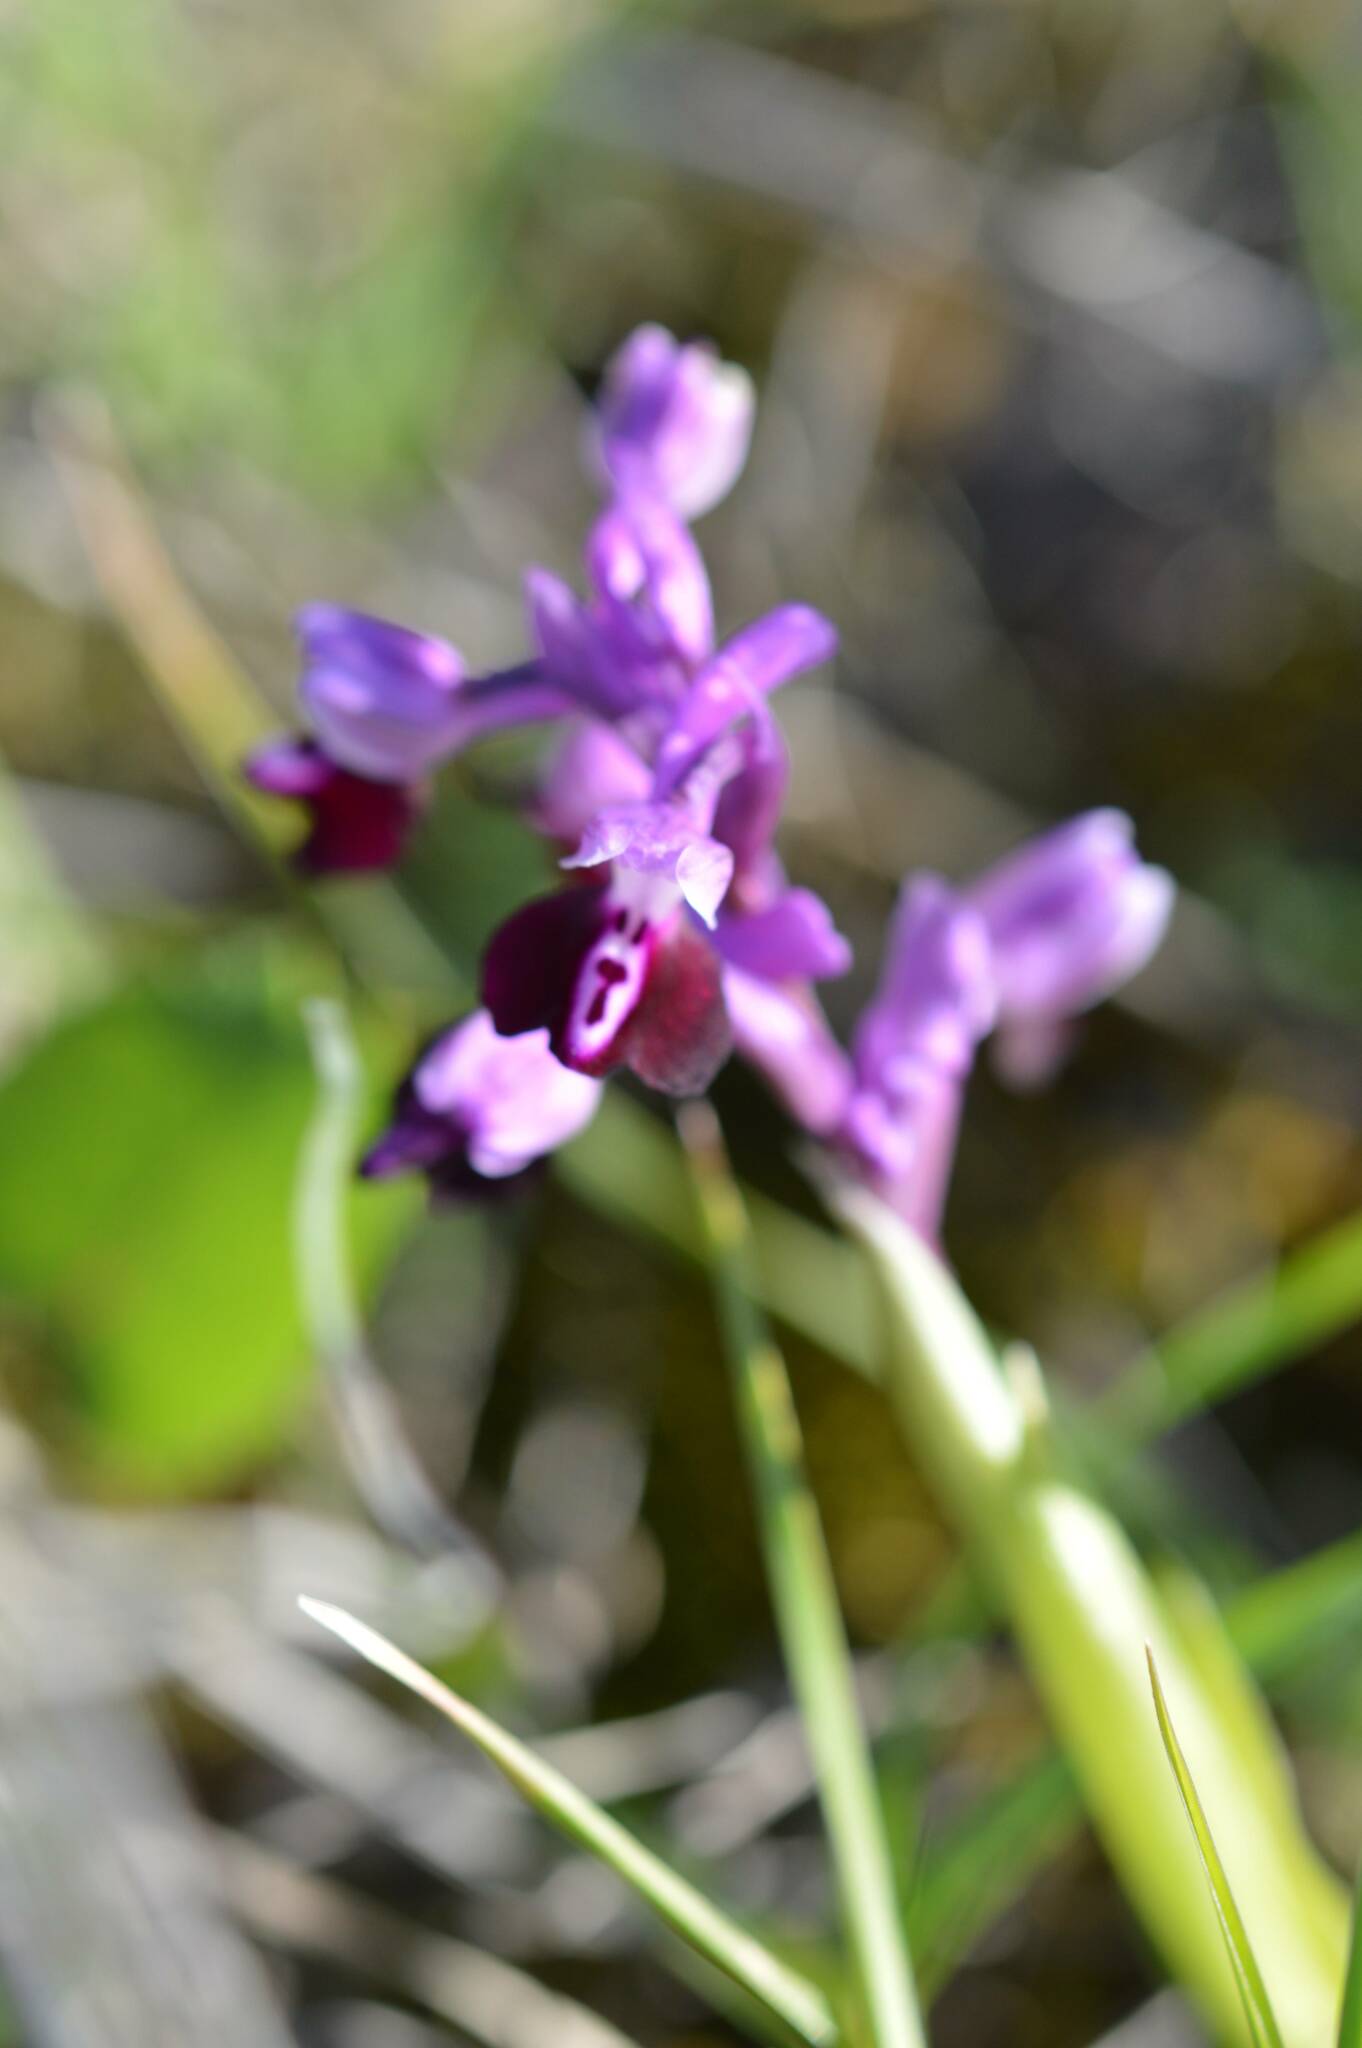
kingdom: Plantae
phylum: Tracheophyta
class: Liliopsida
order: Asparagales
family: Orchidaceae
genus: Anacamptis
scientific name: Anacamptis morio
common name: Green-winged orchid
